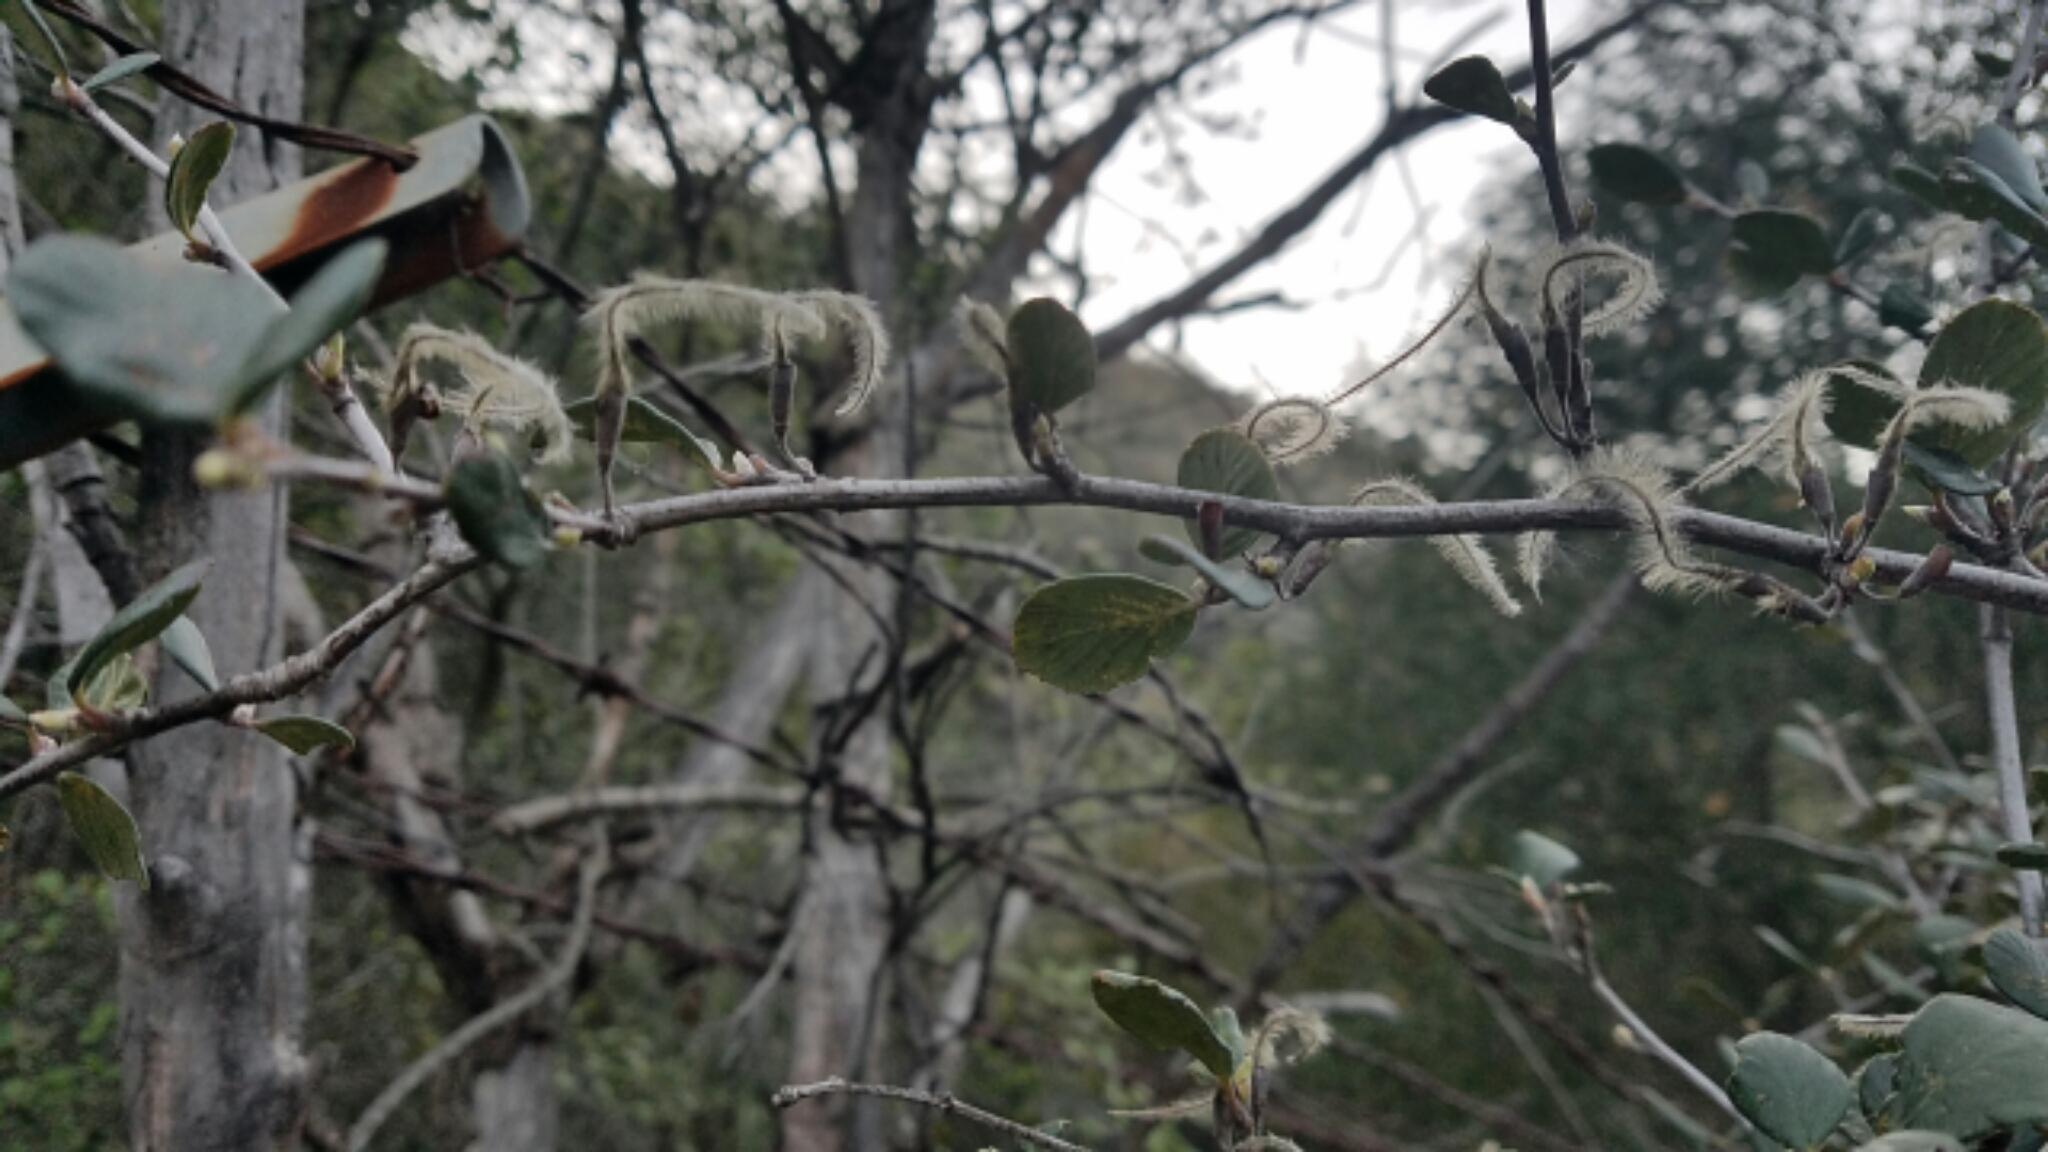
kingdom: Plantae
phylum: Tracheophyta
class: Magnoliopsida
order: Rosales
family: Rosaceae
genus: Cercocarpus
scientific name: Cercocarpus betuloides
